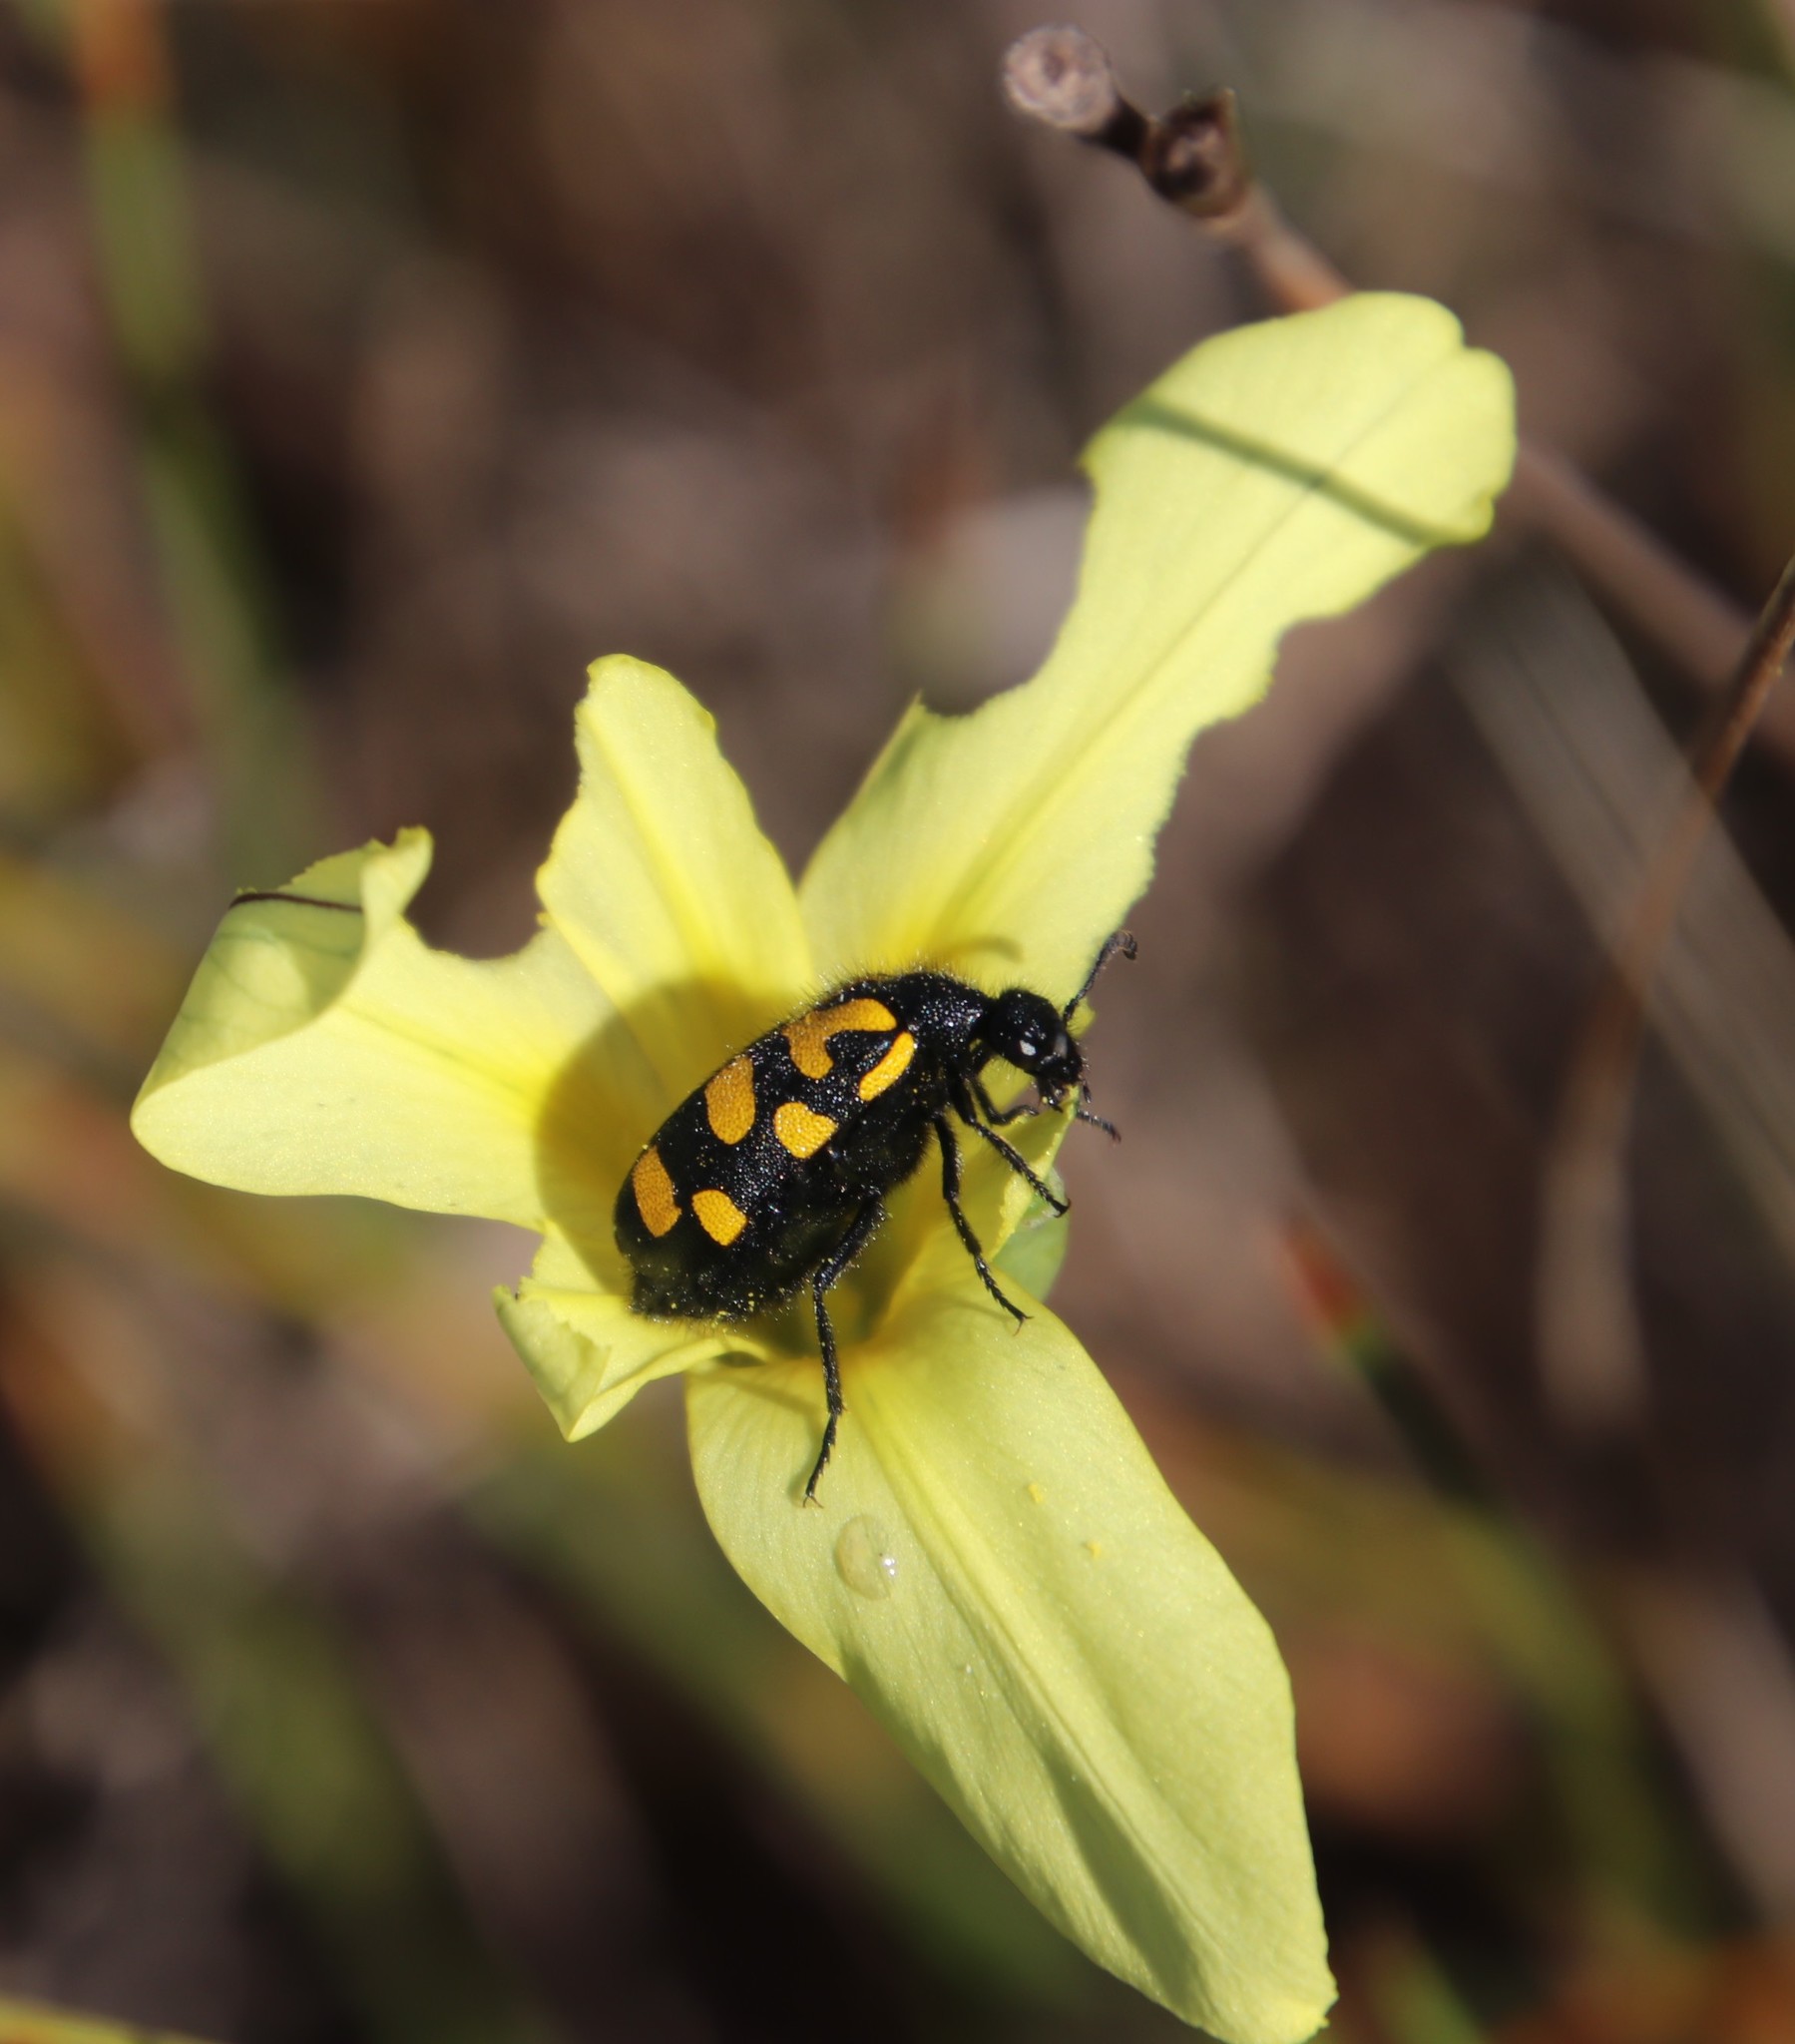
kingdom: Plantae
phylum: Tracheophyta
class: Liliopsida
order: Asparagales
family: Iridaceae
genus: Moraea
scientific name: Moraea collina
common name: Cape-tulip
